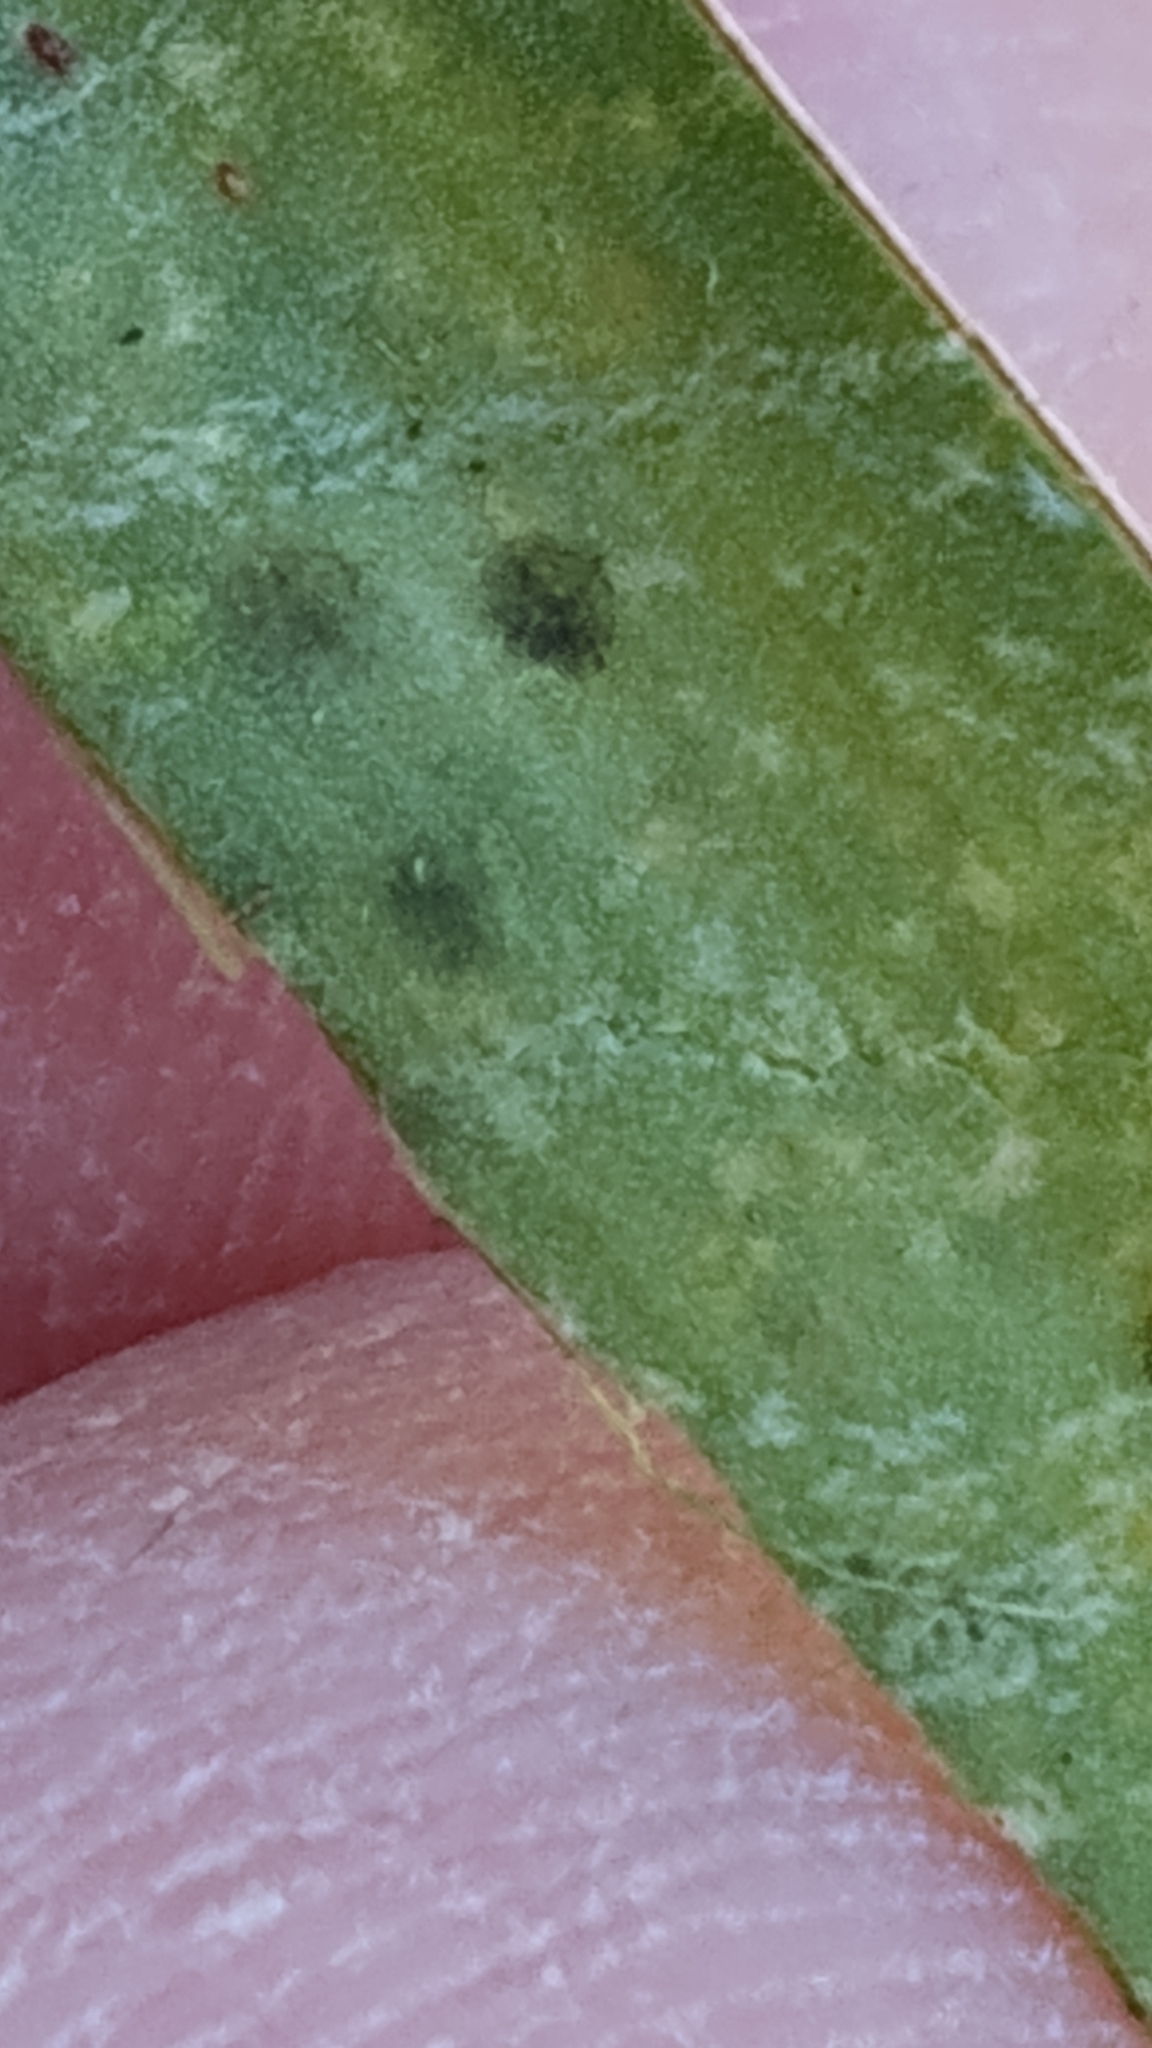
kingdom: Plantae
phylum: Tracheophyta
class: Liliopsida
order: Asparagales
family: Asparagaceae
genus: Yucca
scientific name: Yucca filamentosa
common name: Adam's-needle
